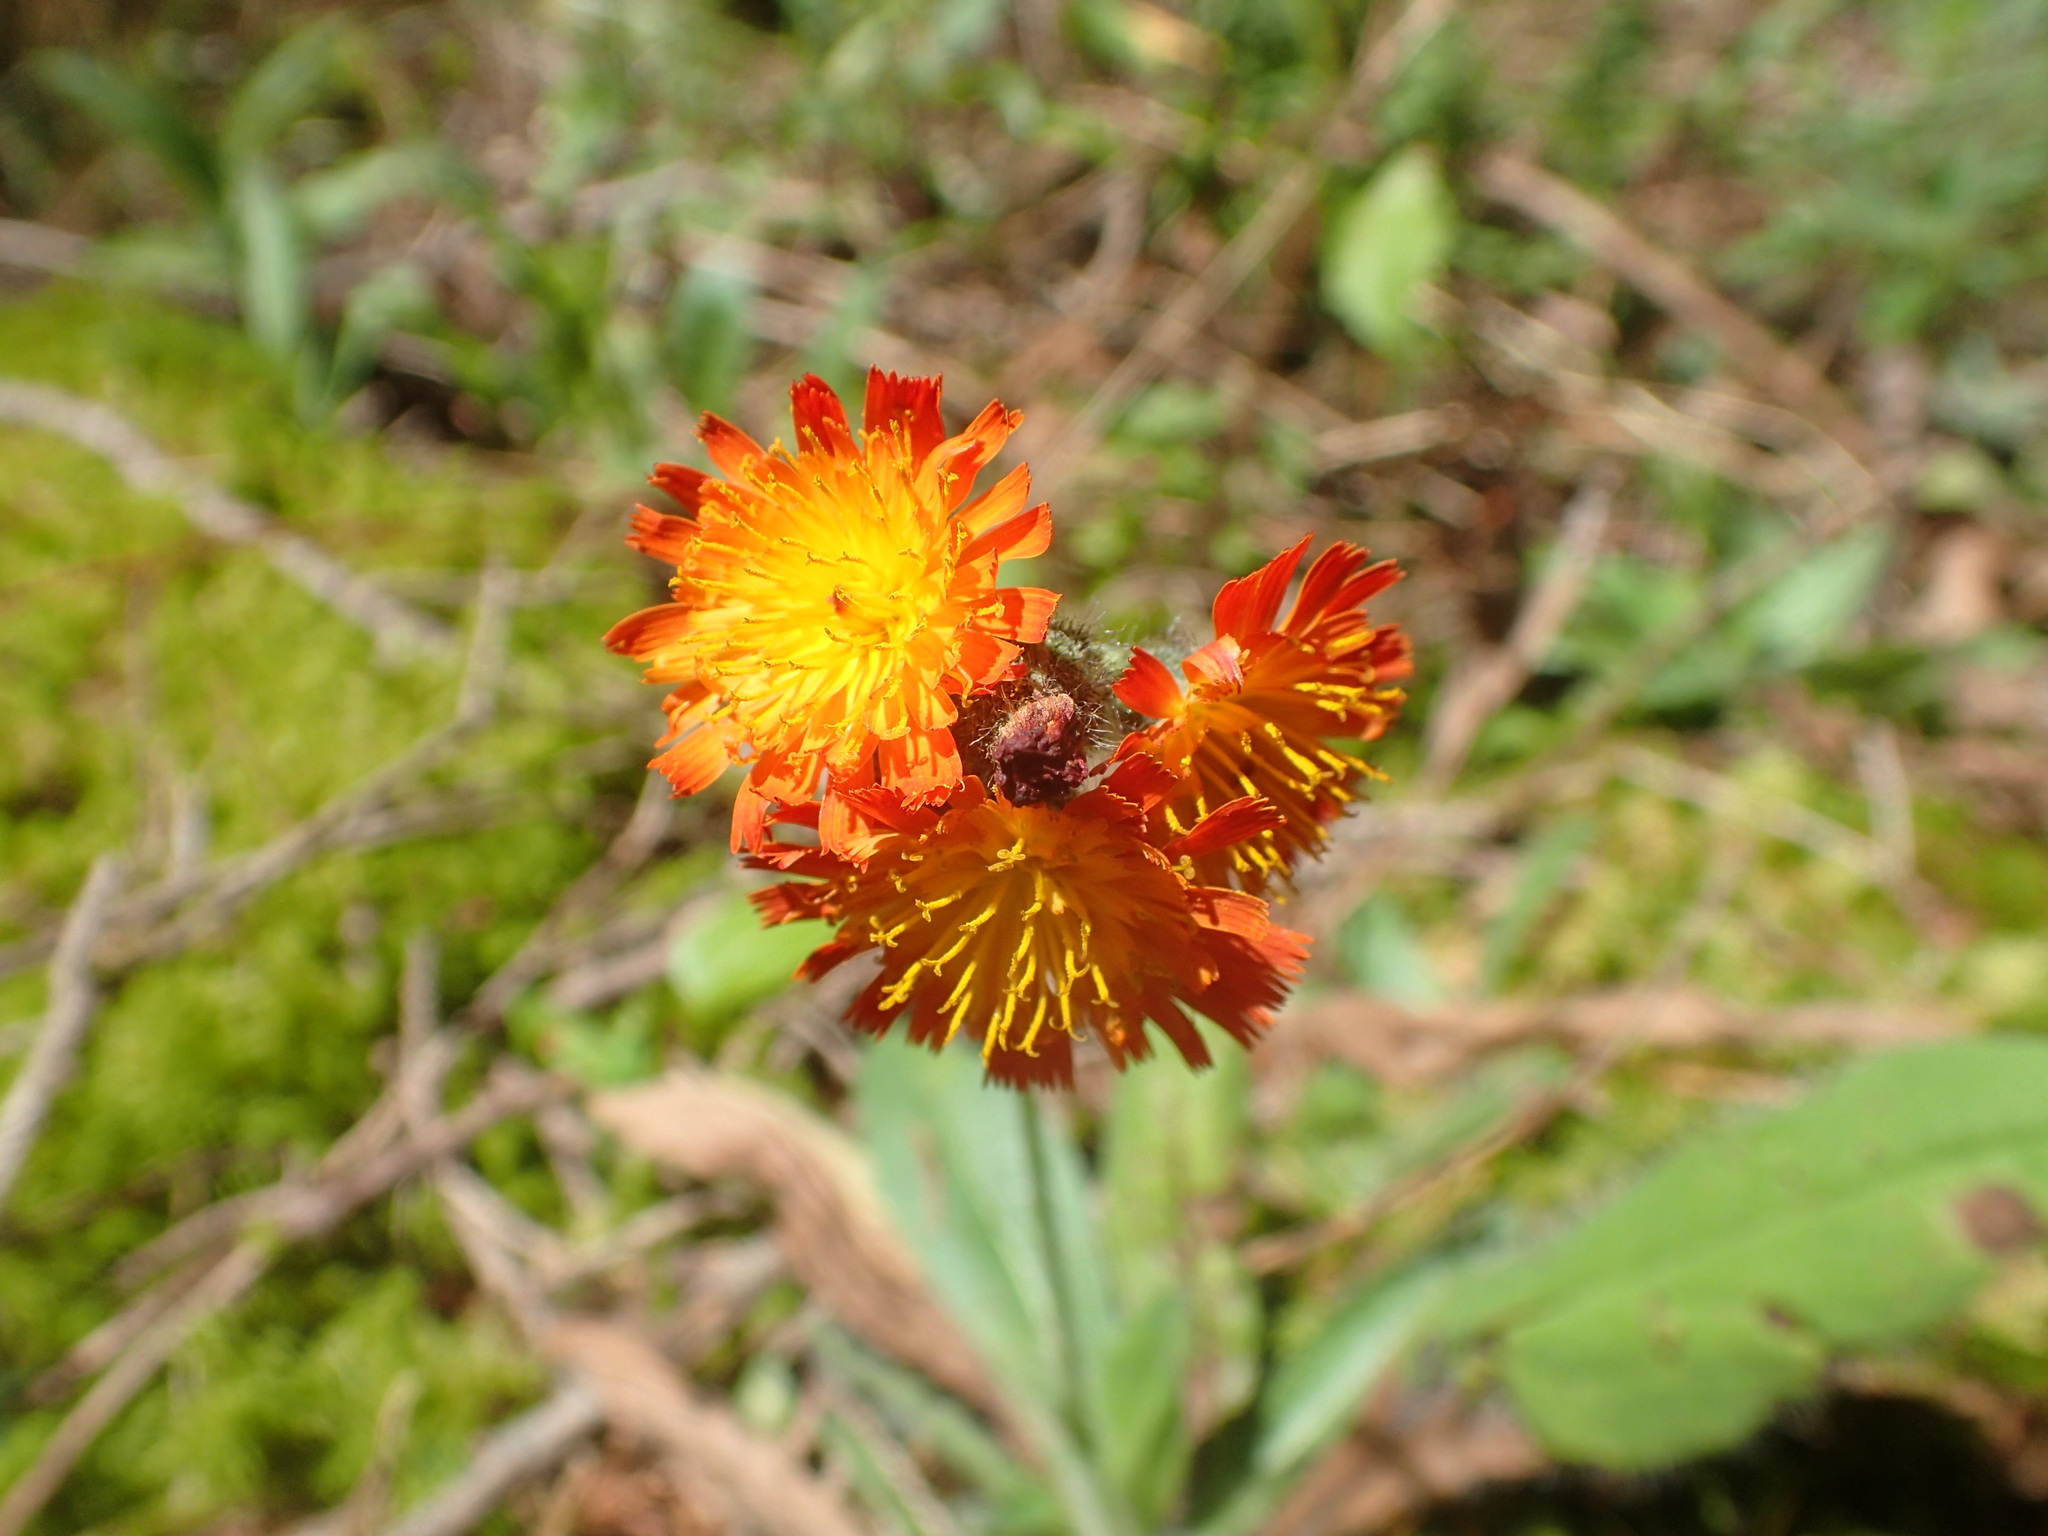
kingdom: Plantae
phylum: Tracheophyta
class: Magnoliopsida
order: Asterales
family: Asteraceae
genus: Pilosella
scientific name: Pilosella aurantiaca
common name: Fox-and-cubs
